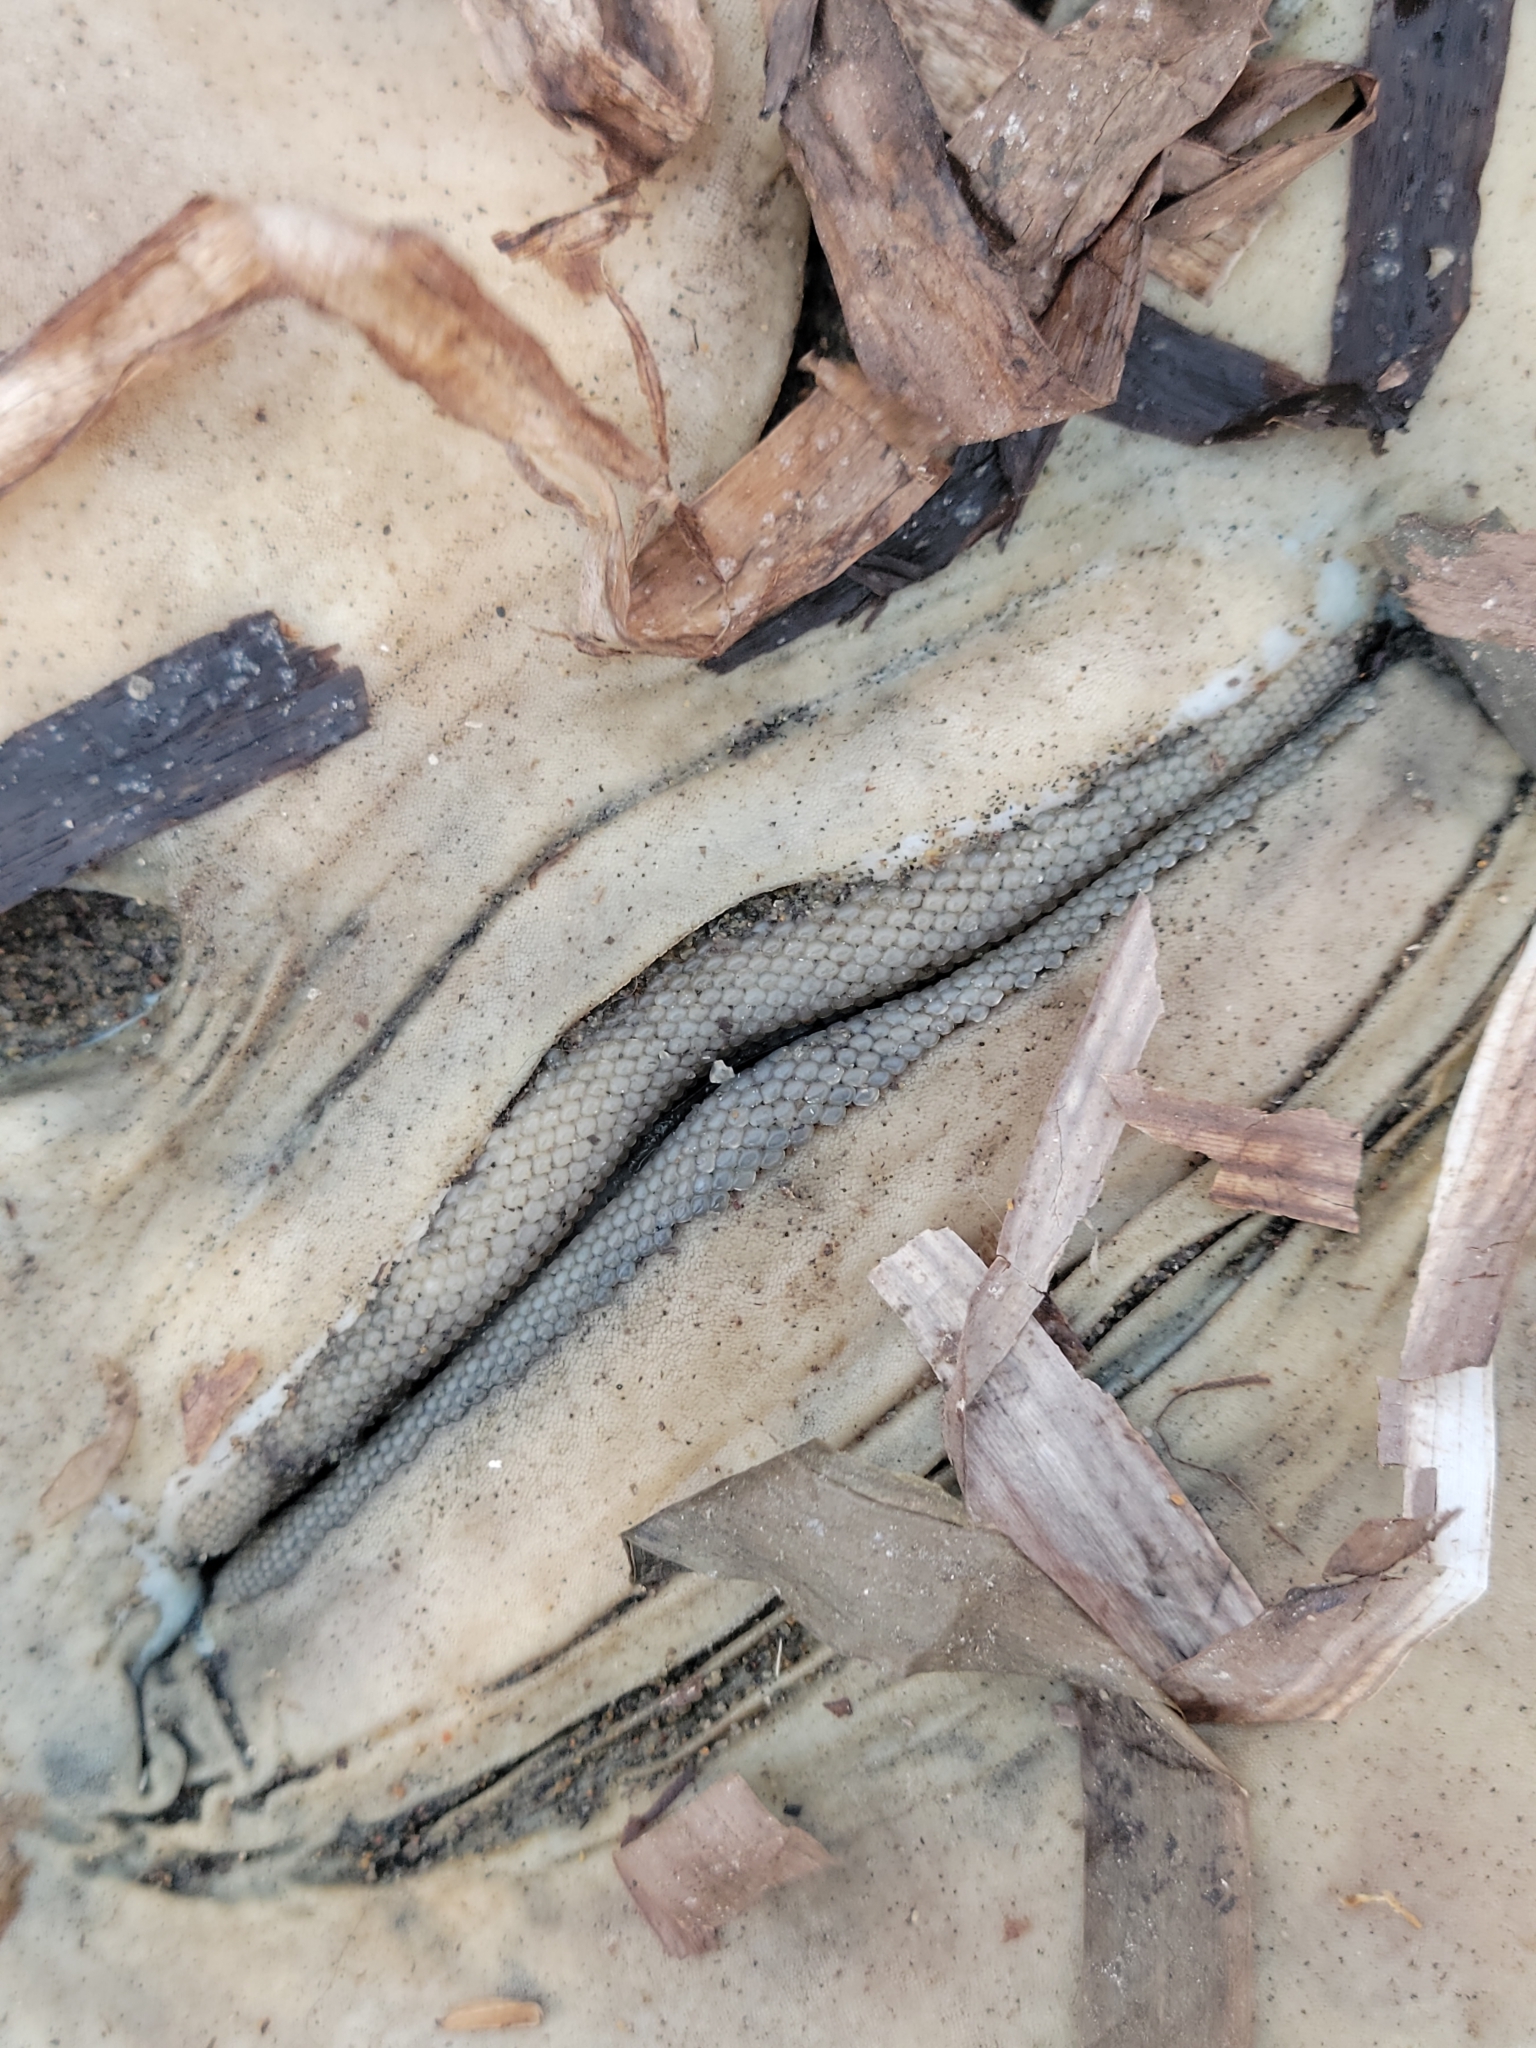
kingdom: Animalia
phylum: Chordata
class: Elasmobranchii
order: Rhinopristiformes
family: Rhinobatidae
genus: Pseudobatos
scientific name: Pseudobatos productus
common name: Shovelnose guitarfish
